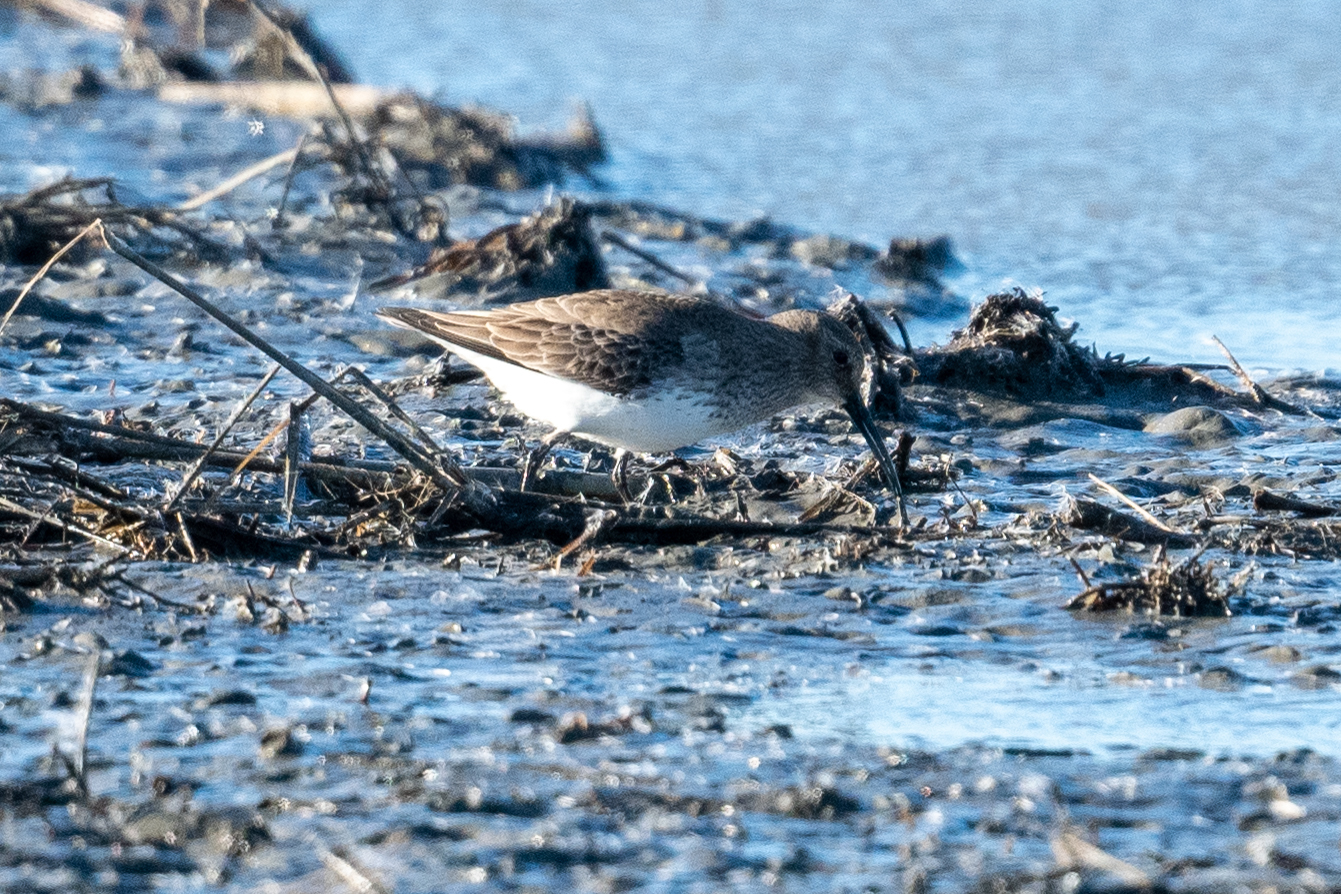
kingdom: Animalia
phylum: Chordata
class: Aves
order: Charadriiformes
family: Scolopacidae
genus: Calidris
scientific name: Calidris alpina
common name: Dunlin
